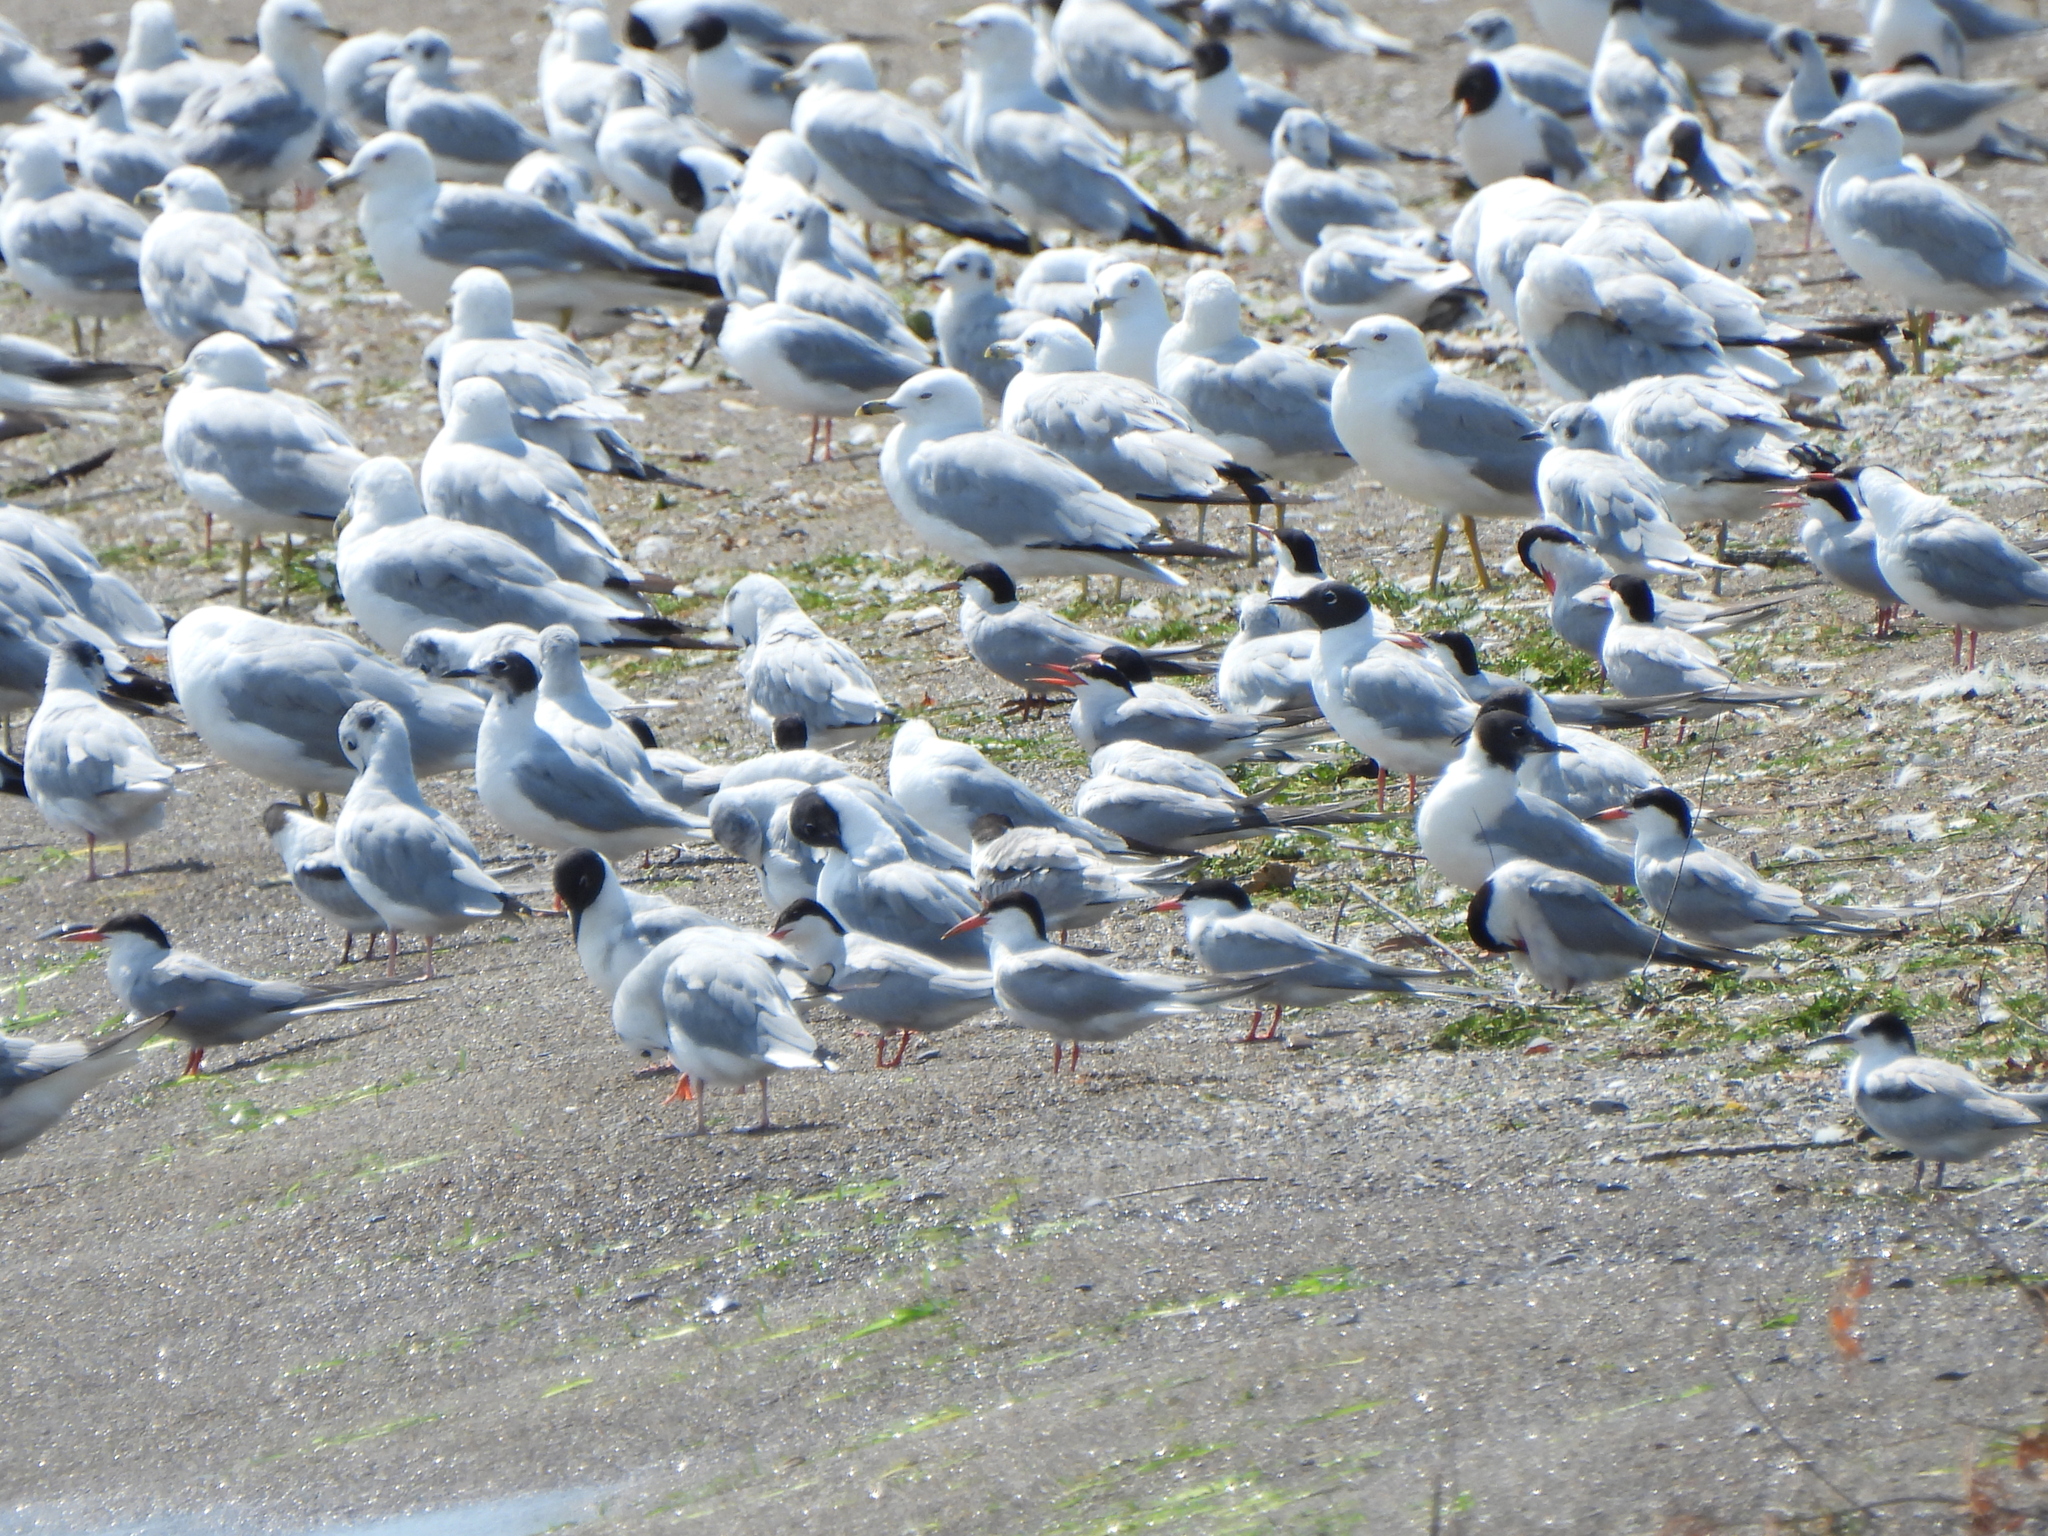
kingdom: Animalia
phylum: Chordata
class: Aves
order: Charadriiformes
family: Laridae
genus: Larus
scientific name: Larus delawarensis
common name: Ring-billed gull
